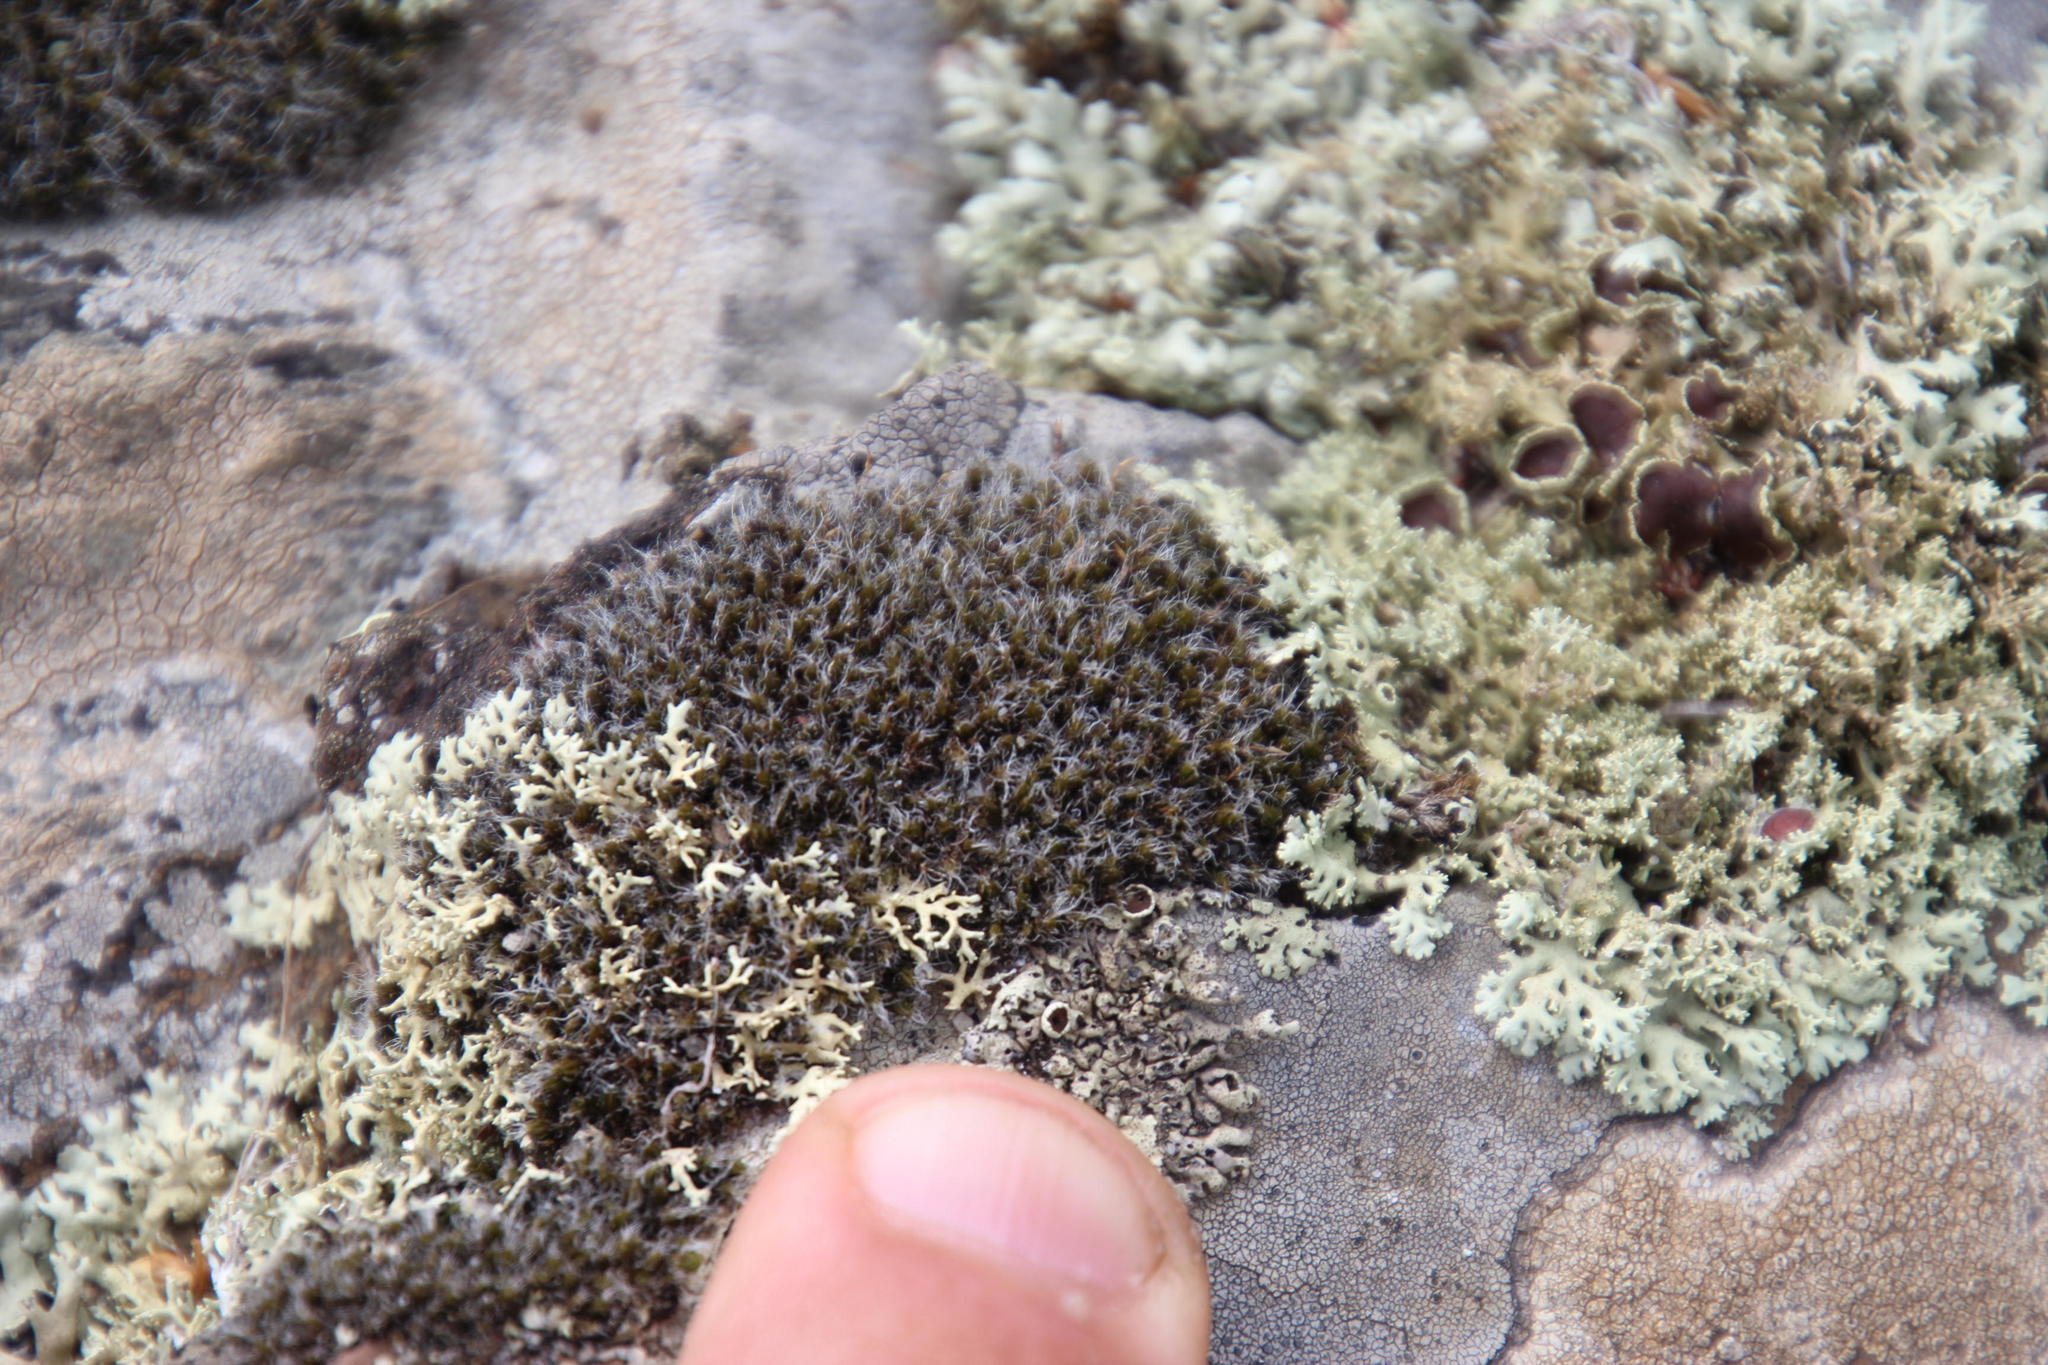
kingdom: Plantae
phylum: Bryophyta
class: Bryopsida
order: Grimmiales
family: Grimmiaceae
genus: Grimmia
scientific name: Grimmia pulvinata
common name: Grey-cushioned grimmia
